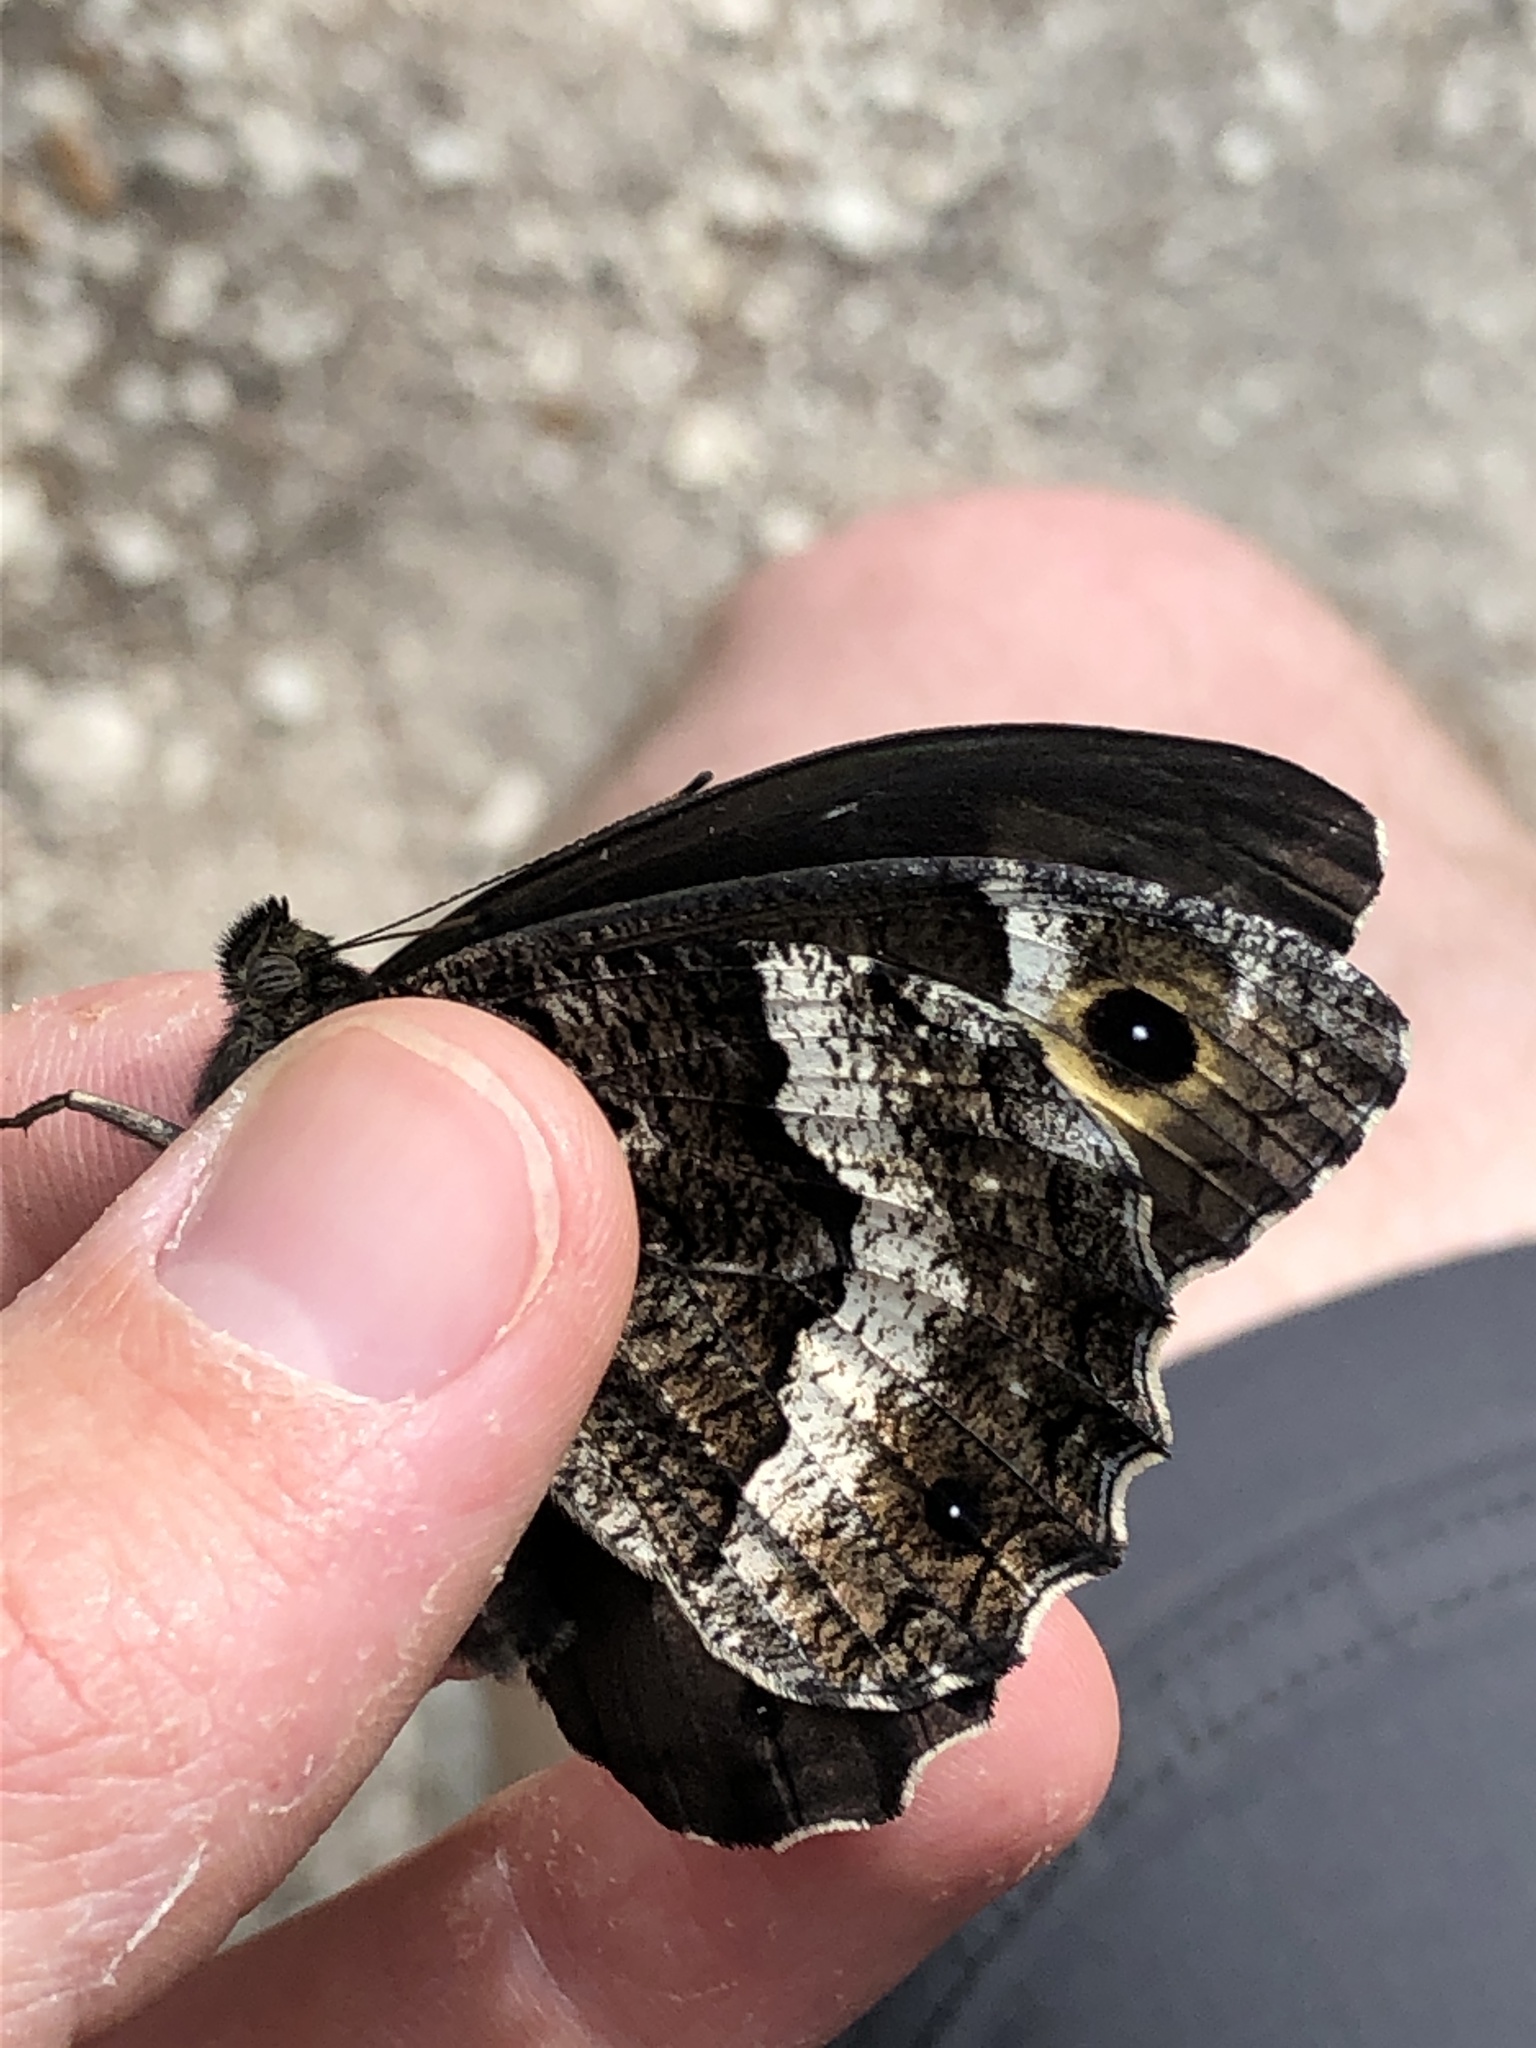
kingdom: Animalia
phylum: Arthropoda
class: Insecta
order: Lepidoptera
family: Nymphalidae
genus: Hipparchia
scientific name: Hipparchia fagi
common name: Woodland grayling
